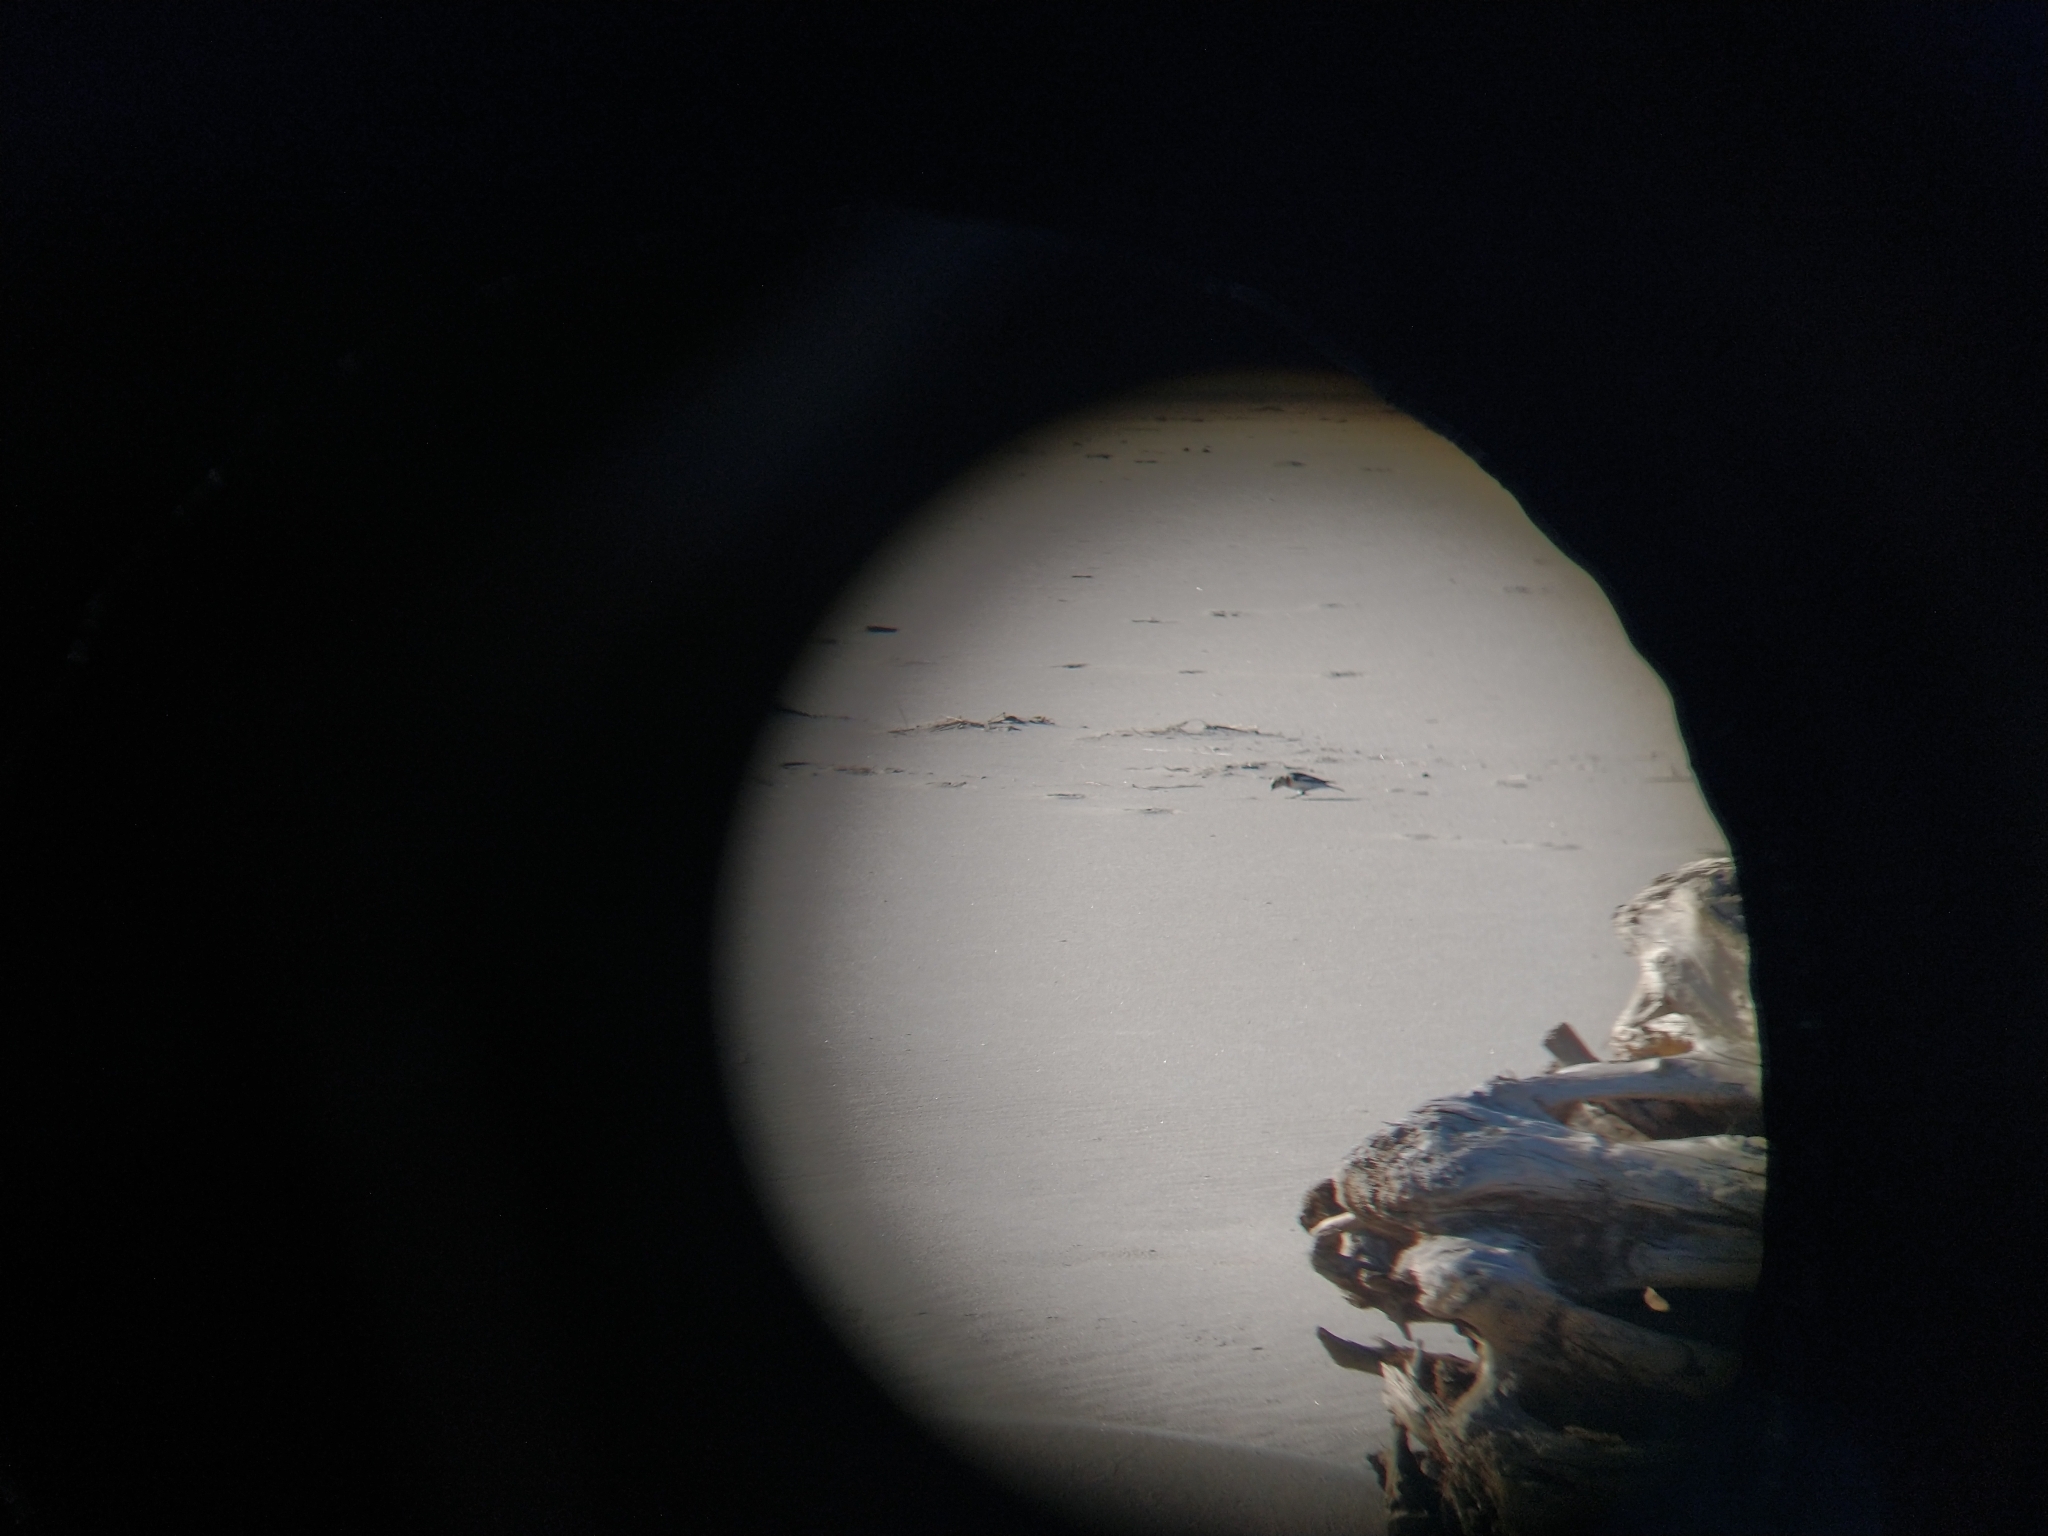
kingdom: Animalia
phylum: Chordata
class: Aves
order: Passeriformes
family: Calcariidae
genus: Plectrophenax
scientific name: Plectrophenax nivalis
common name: Snow bunting
